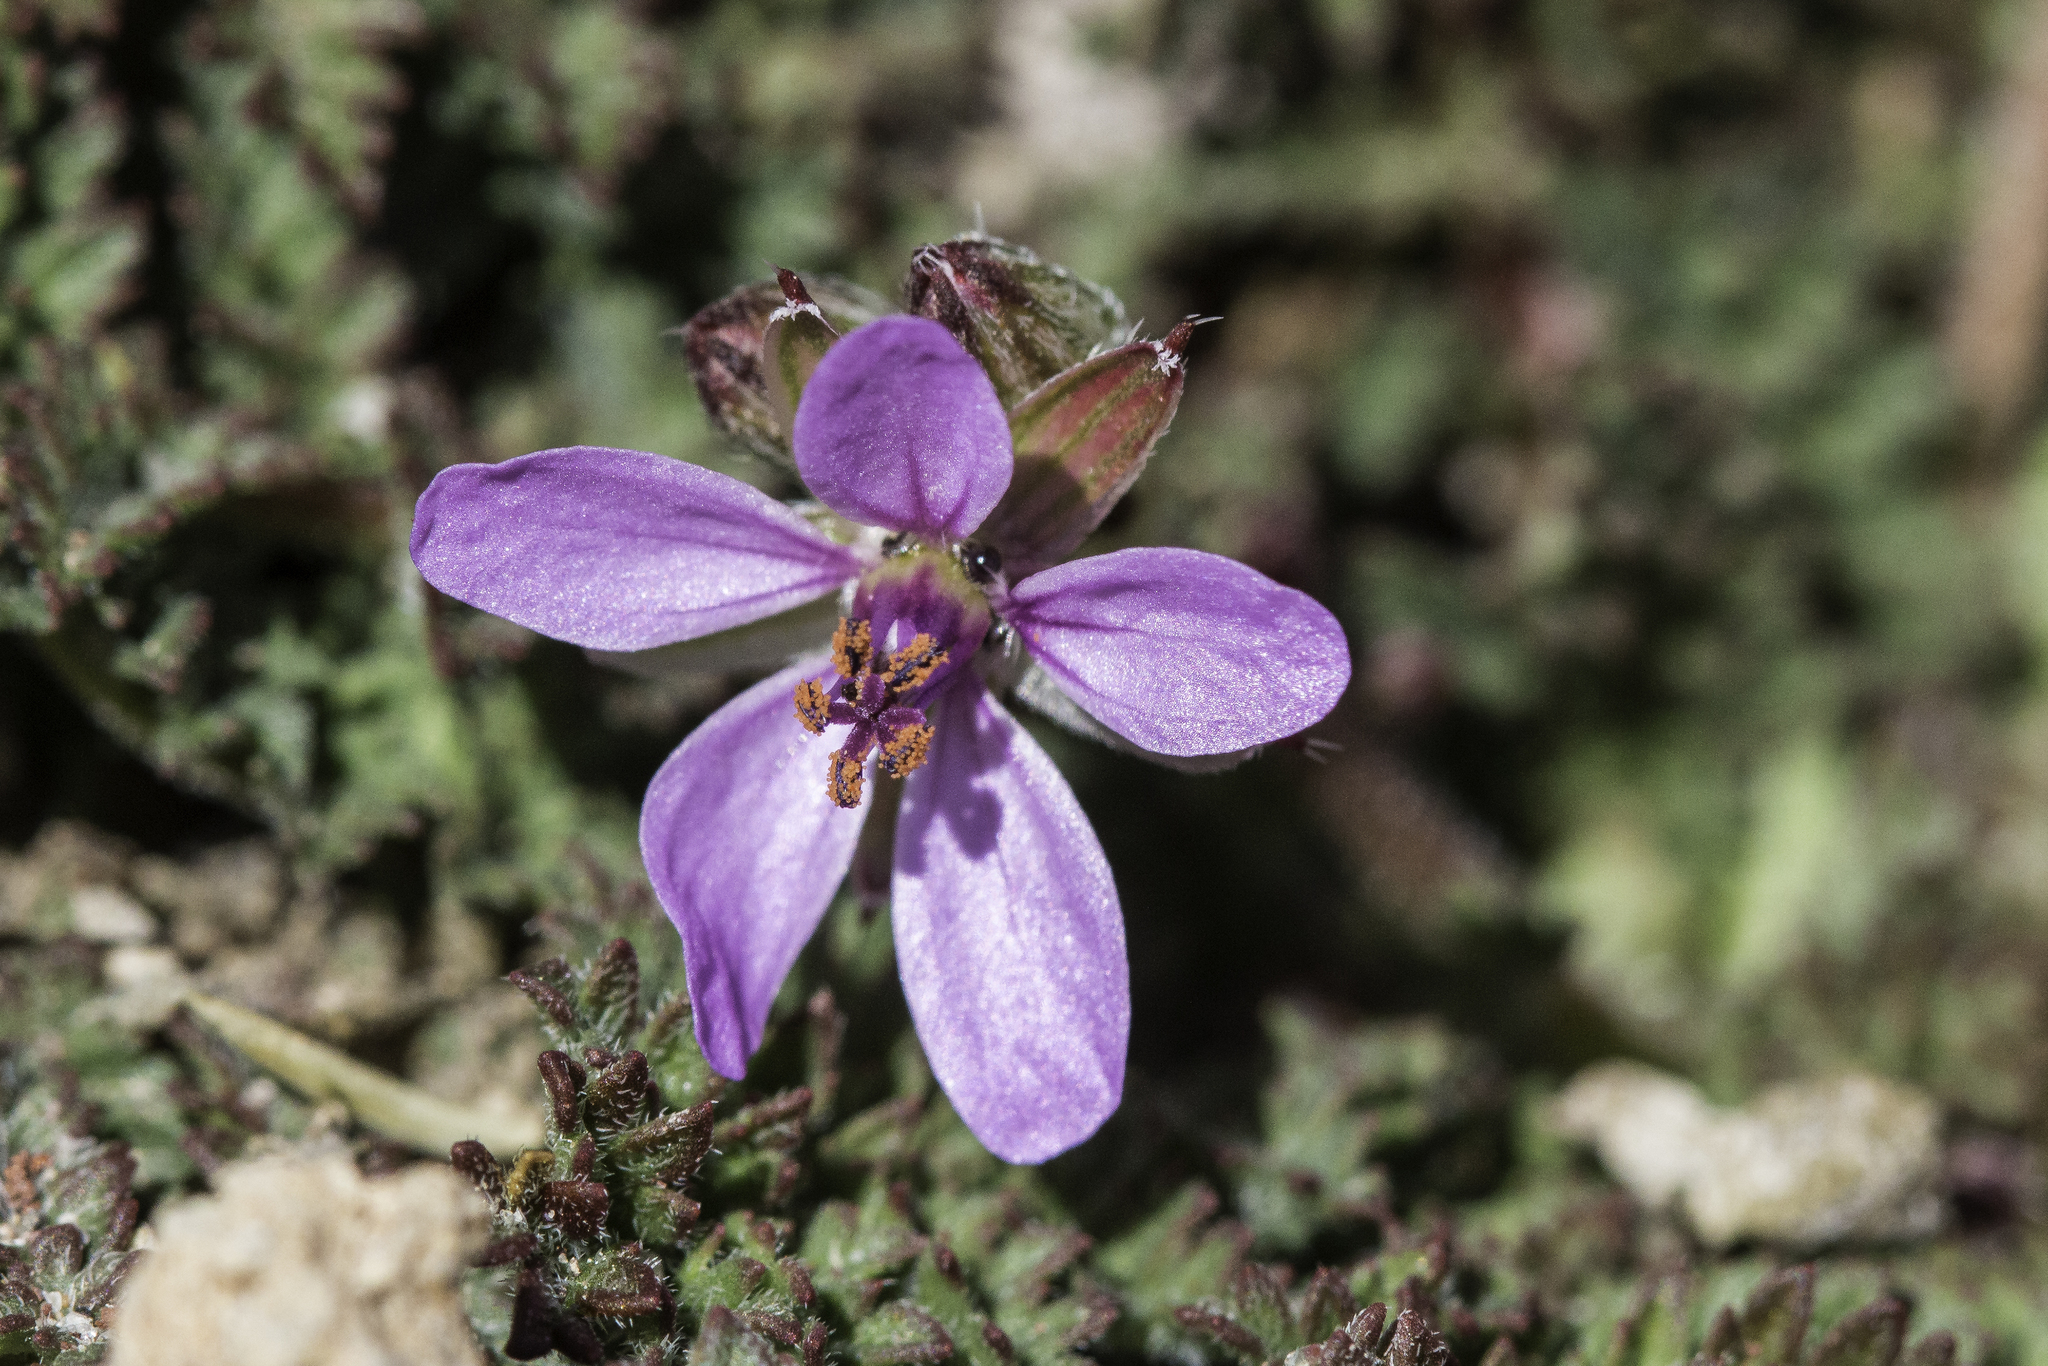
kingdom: Plantae
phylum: Tracheophyta
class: Magnoliopsida
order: Geraniales
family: Geraniaceae
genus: Erodium
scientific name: Erodium cicutarium
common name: Common stork's-bill
